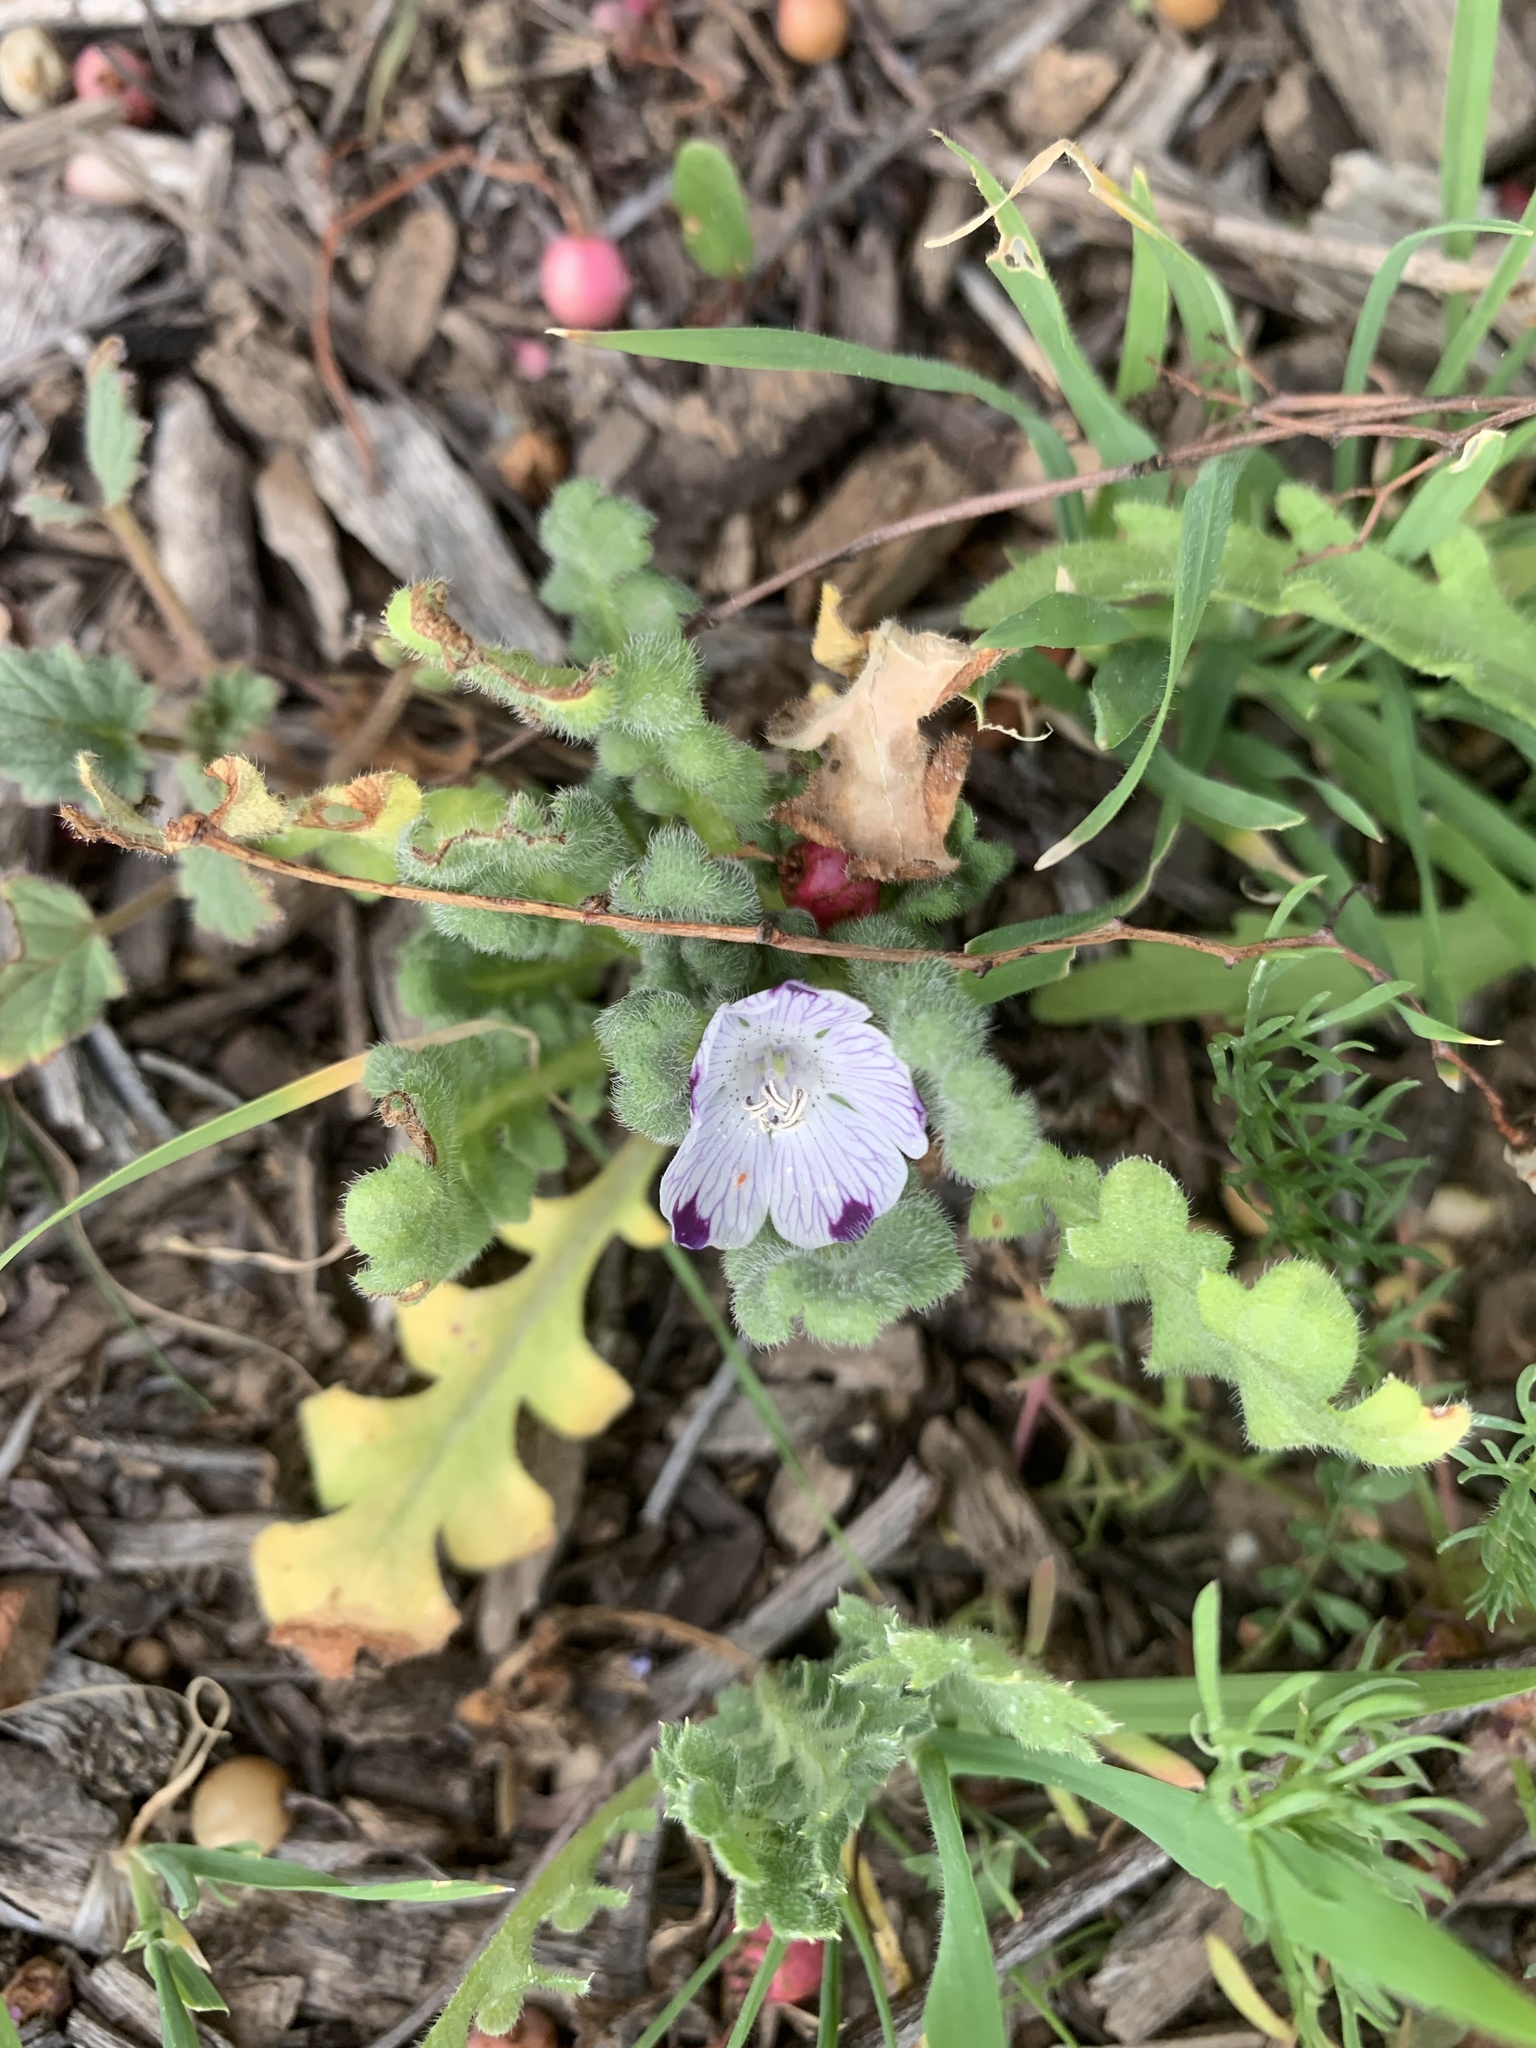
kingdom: Plantae
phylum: Tracheophyta
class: Magnoliopsida
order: Boraginales
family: Hydrophyllaceae
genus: Nemophila
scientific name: Nemophila maculata
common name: Fivespot
